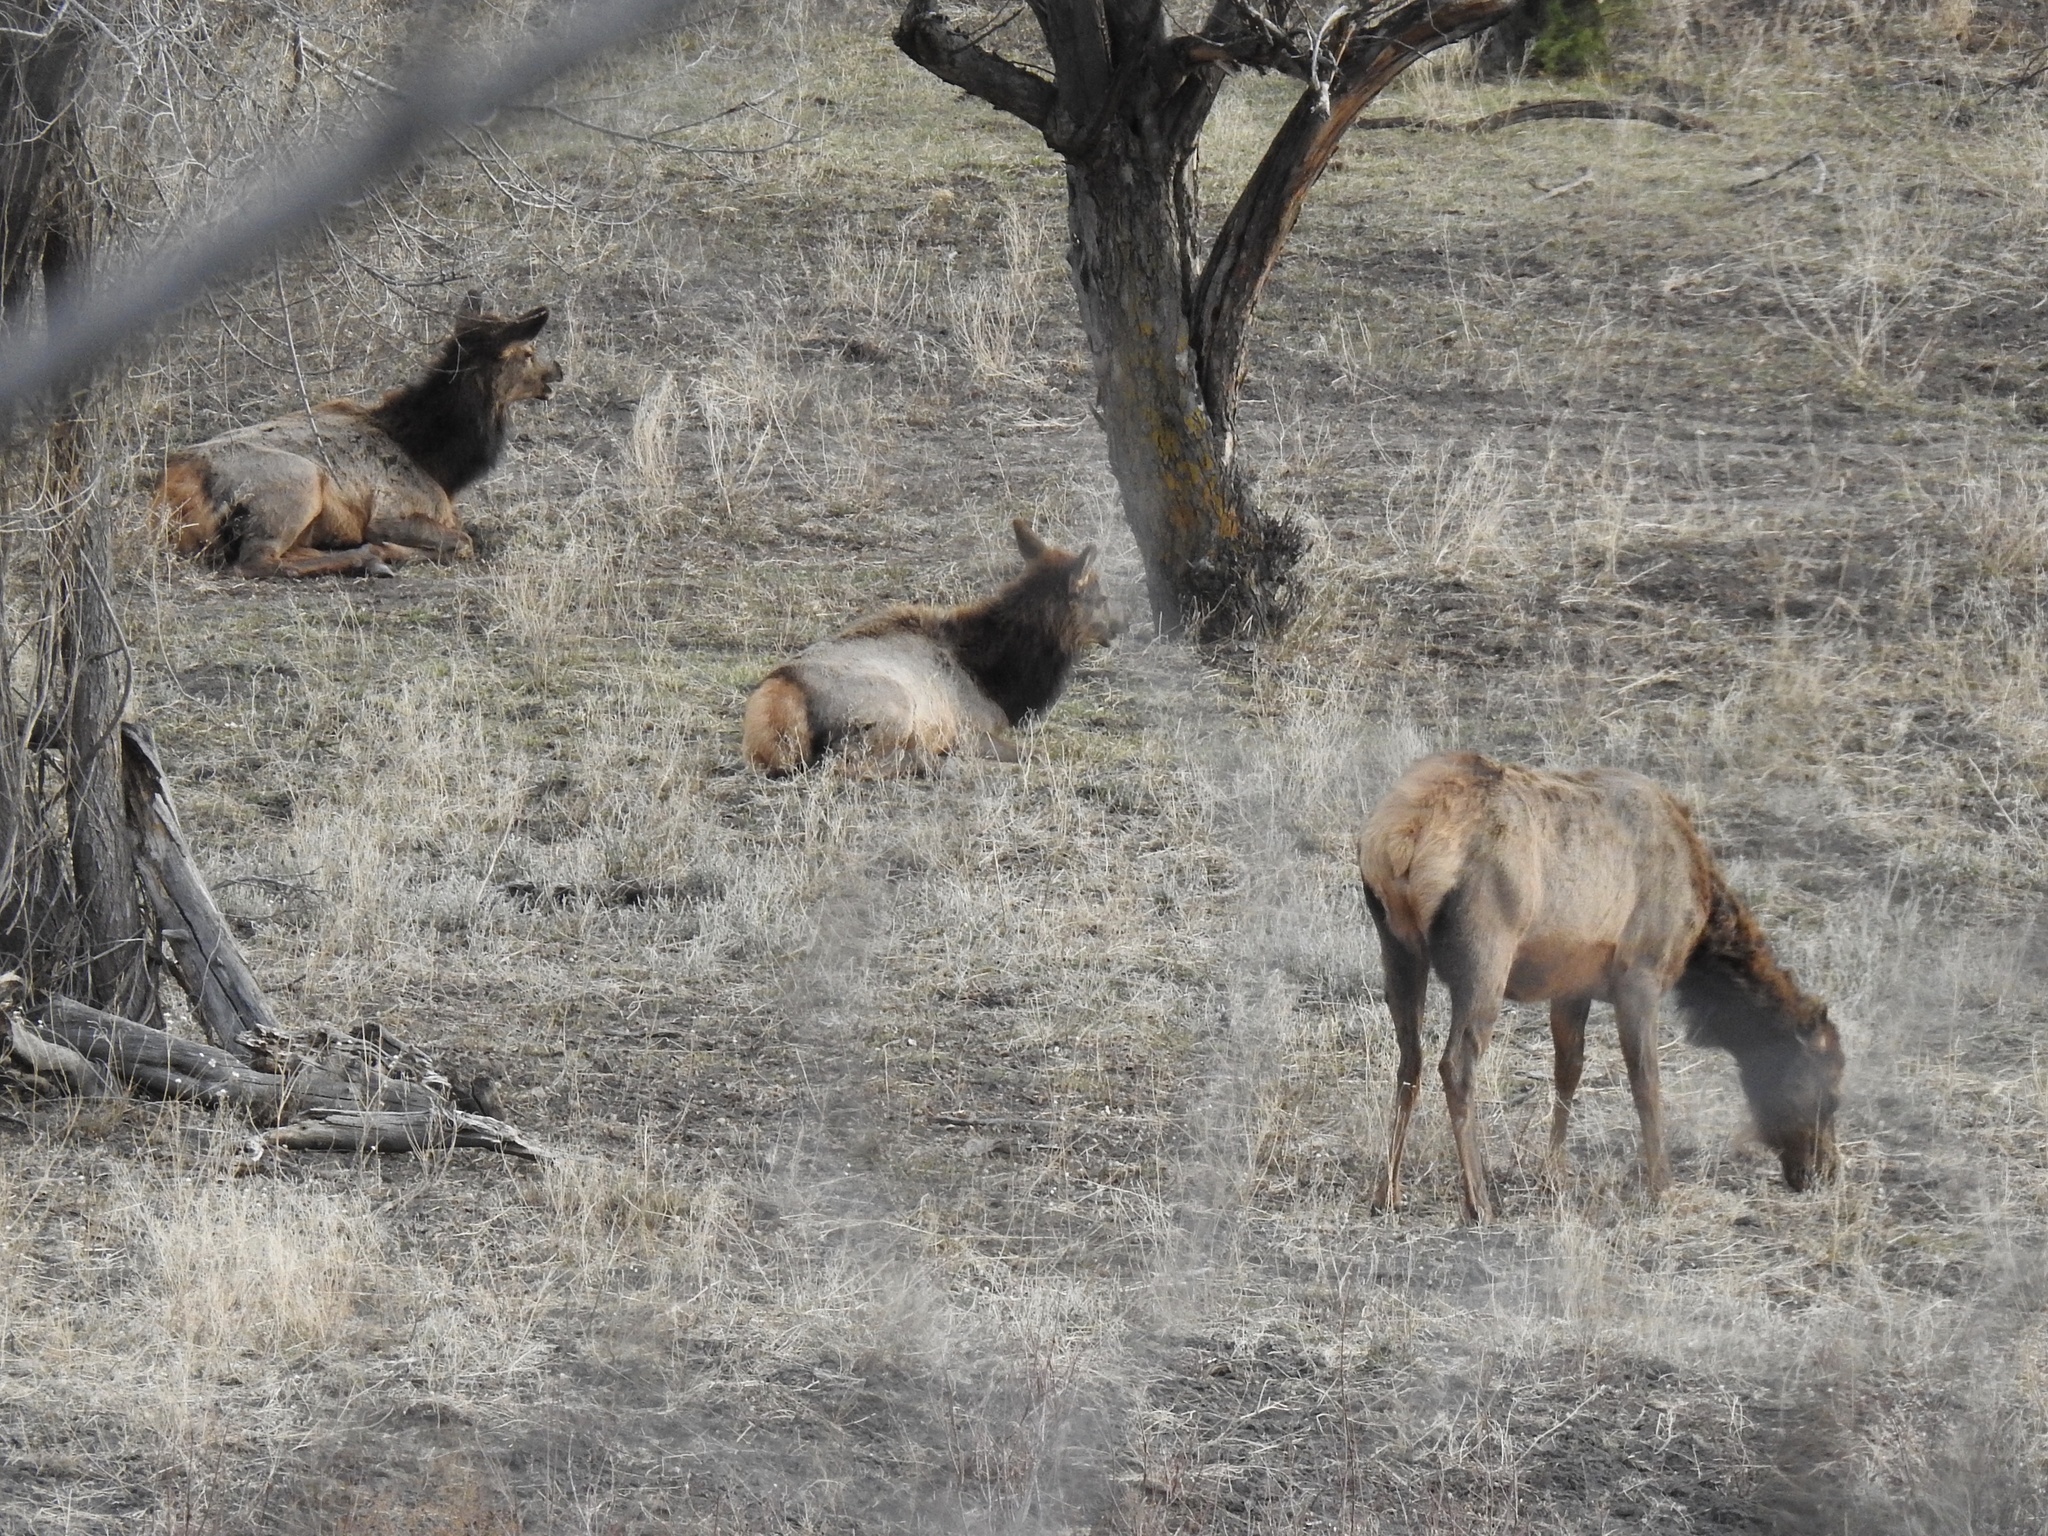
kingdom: Animalia
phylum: Chordata
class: Mammalia
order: Artiodactyla
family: Cervidae
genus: Cervus
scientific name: Cervus elaphus
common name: Red deer
